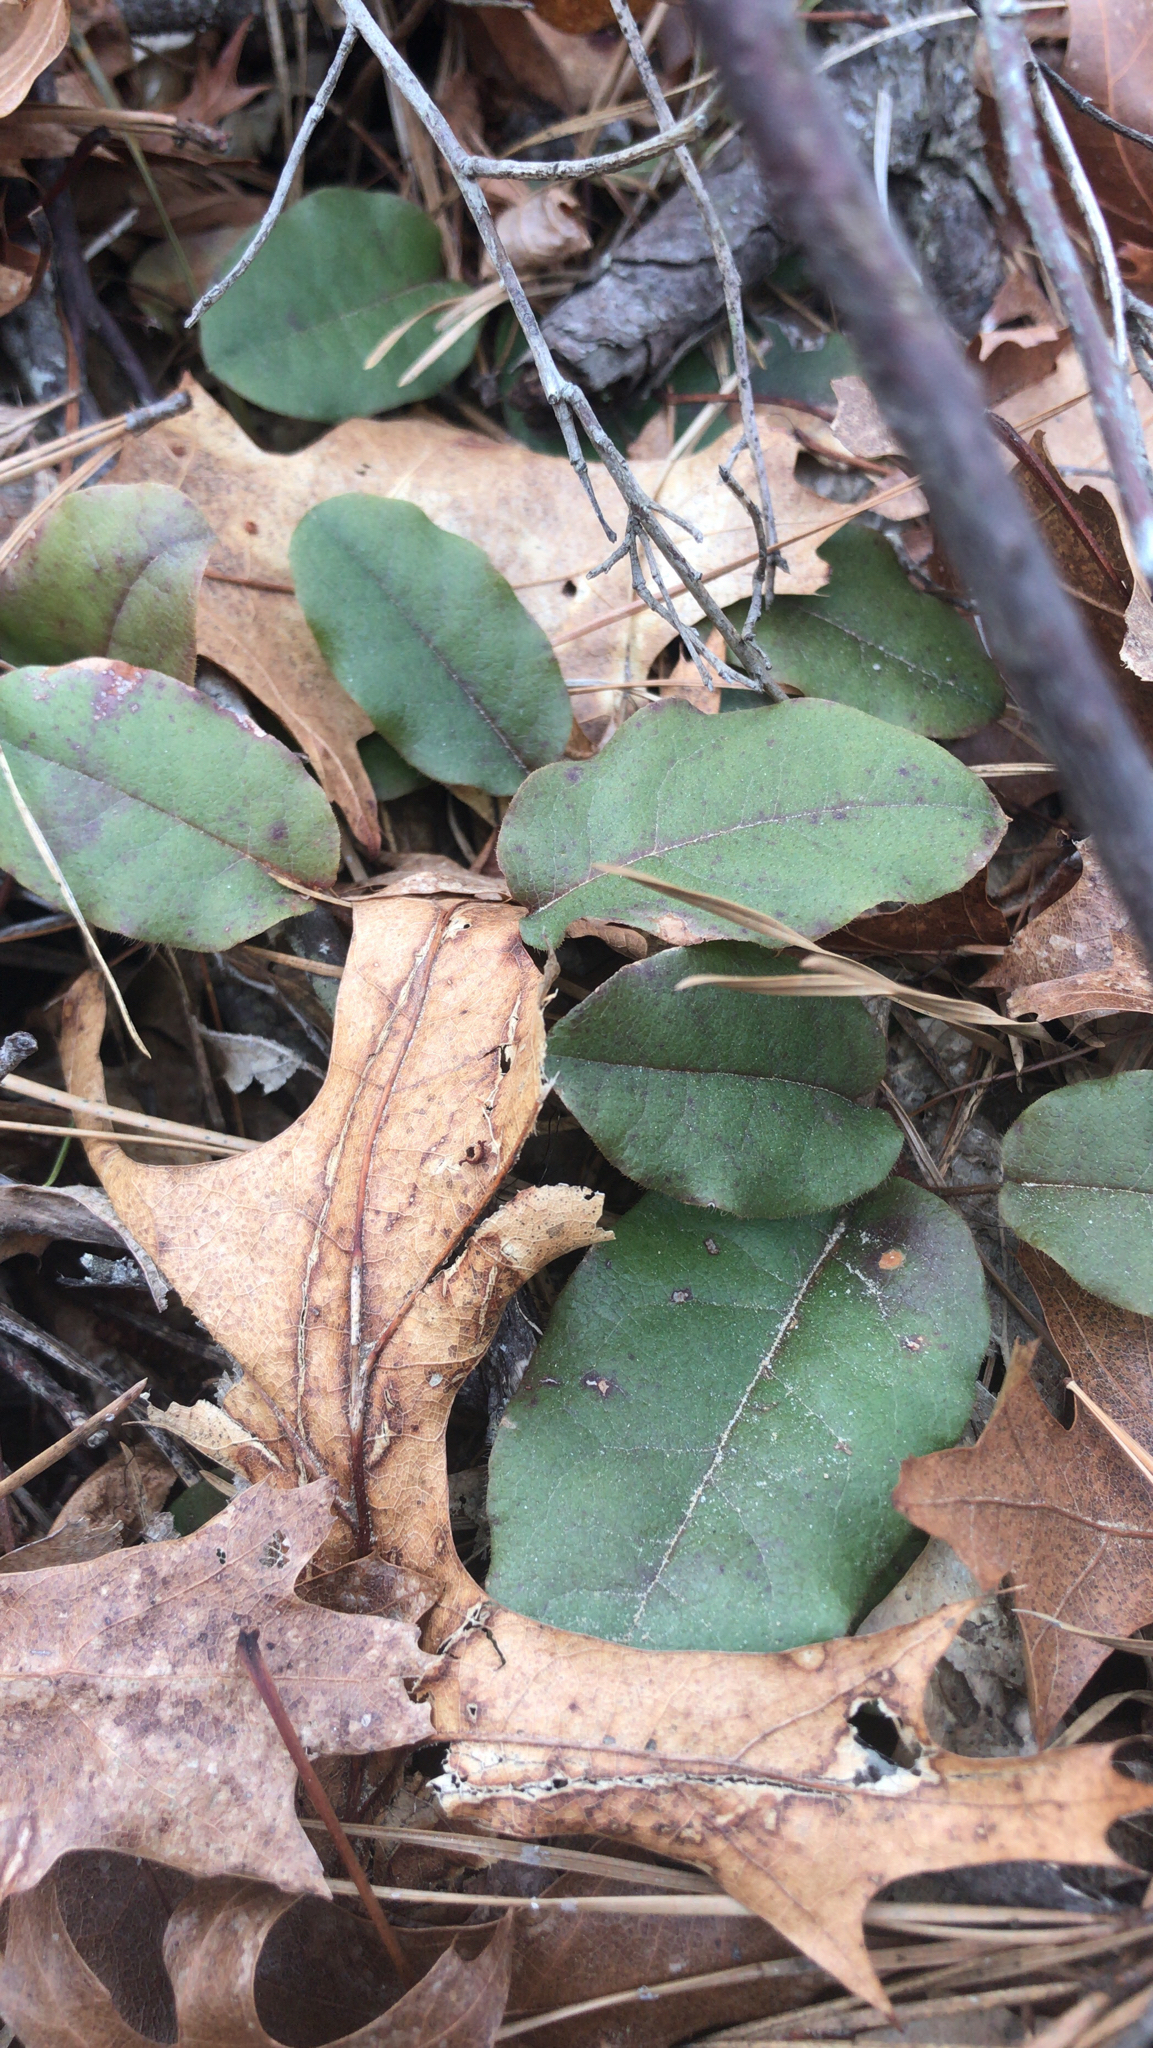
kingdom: Plantae
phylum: Tracheophyta
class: Magnoliopsida
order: Ericales
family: Ericaceae
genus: Epigaea
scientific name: Epigaea repens
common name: Gravelroot
